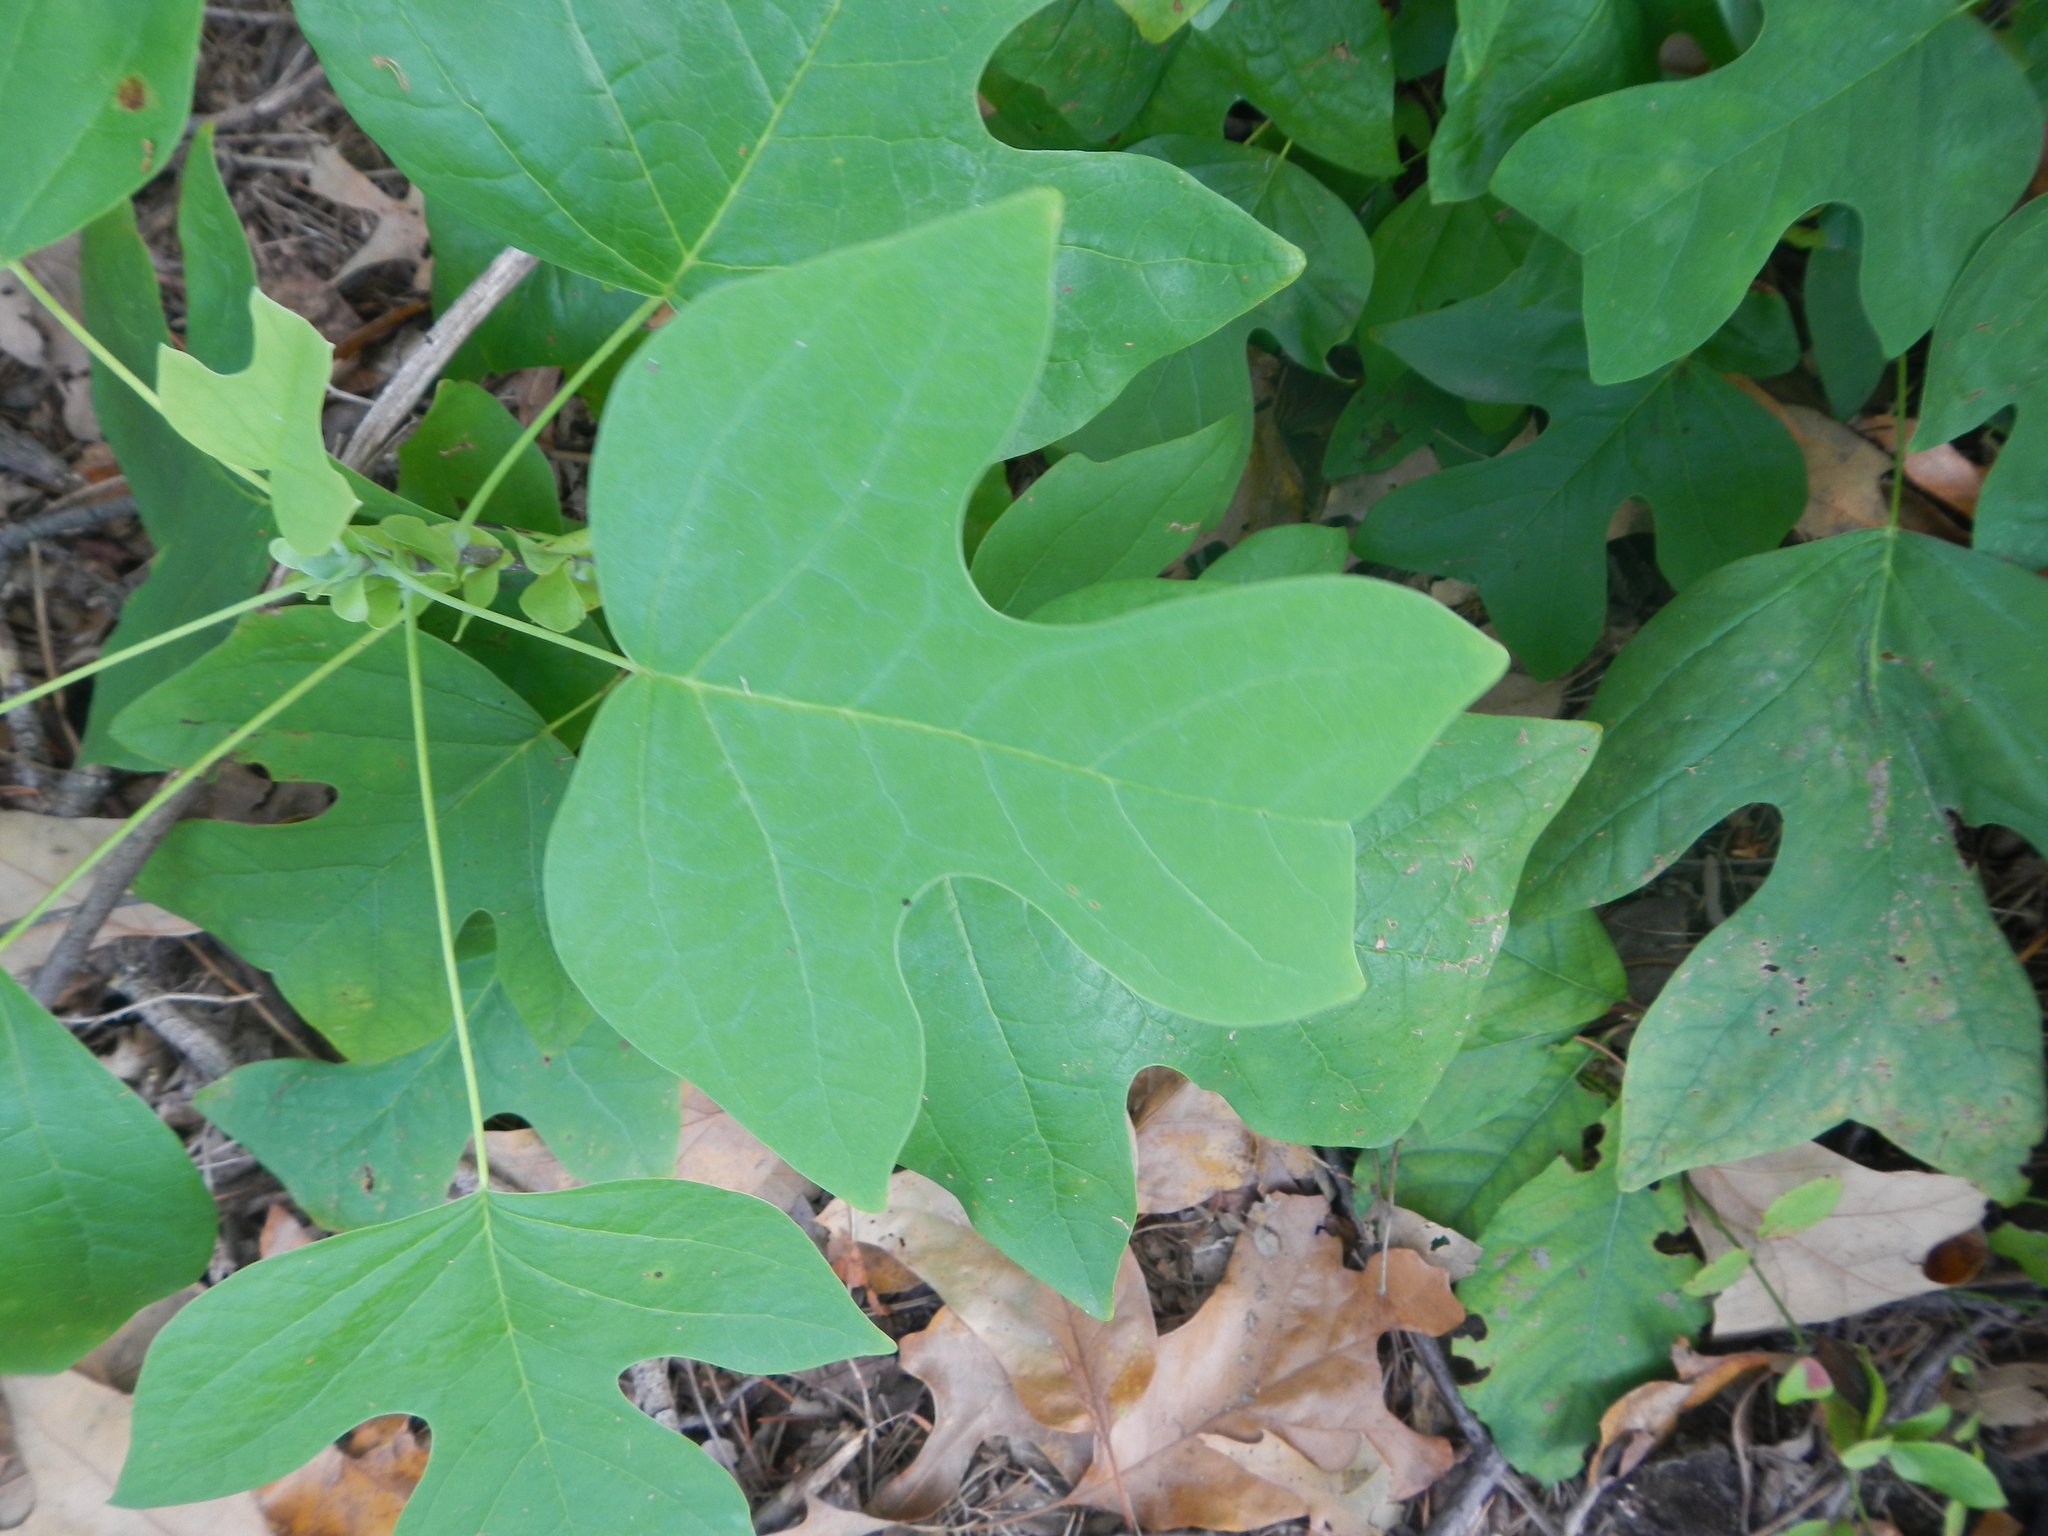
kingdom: Plantae
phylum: Tracheophyta
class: Magnoliopsida
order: Magnoliales
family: Magnoliaceae
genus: Liriodendron
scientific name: Liriodendron tulipifera
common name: Tulip tree
